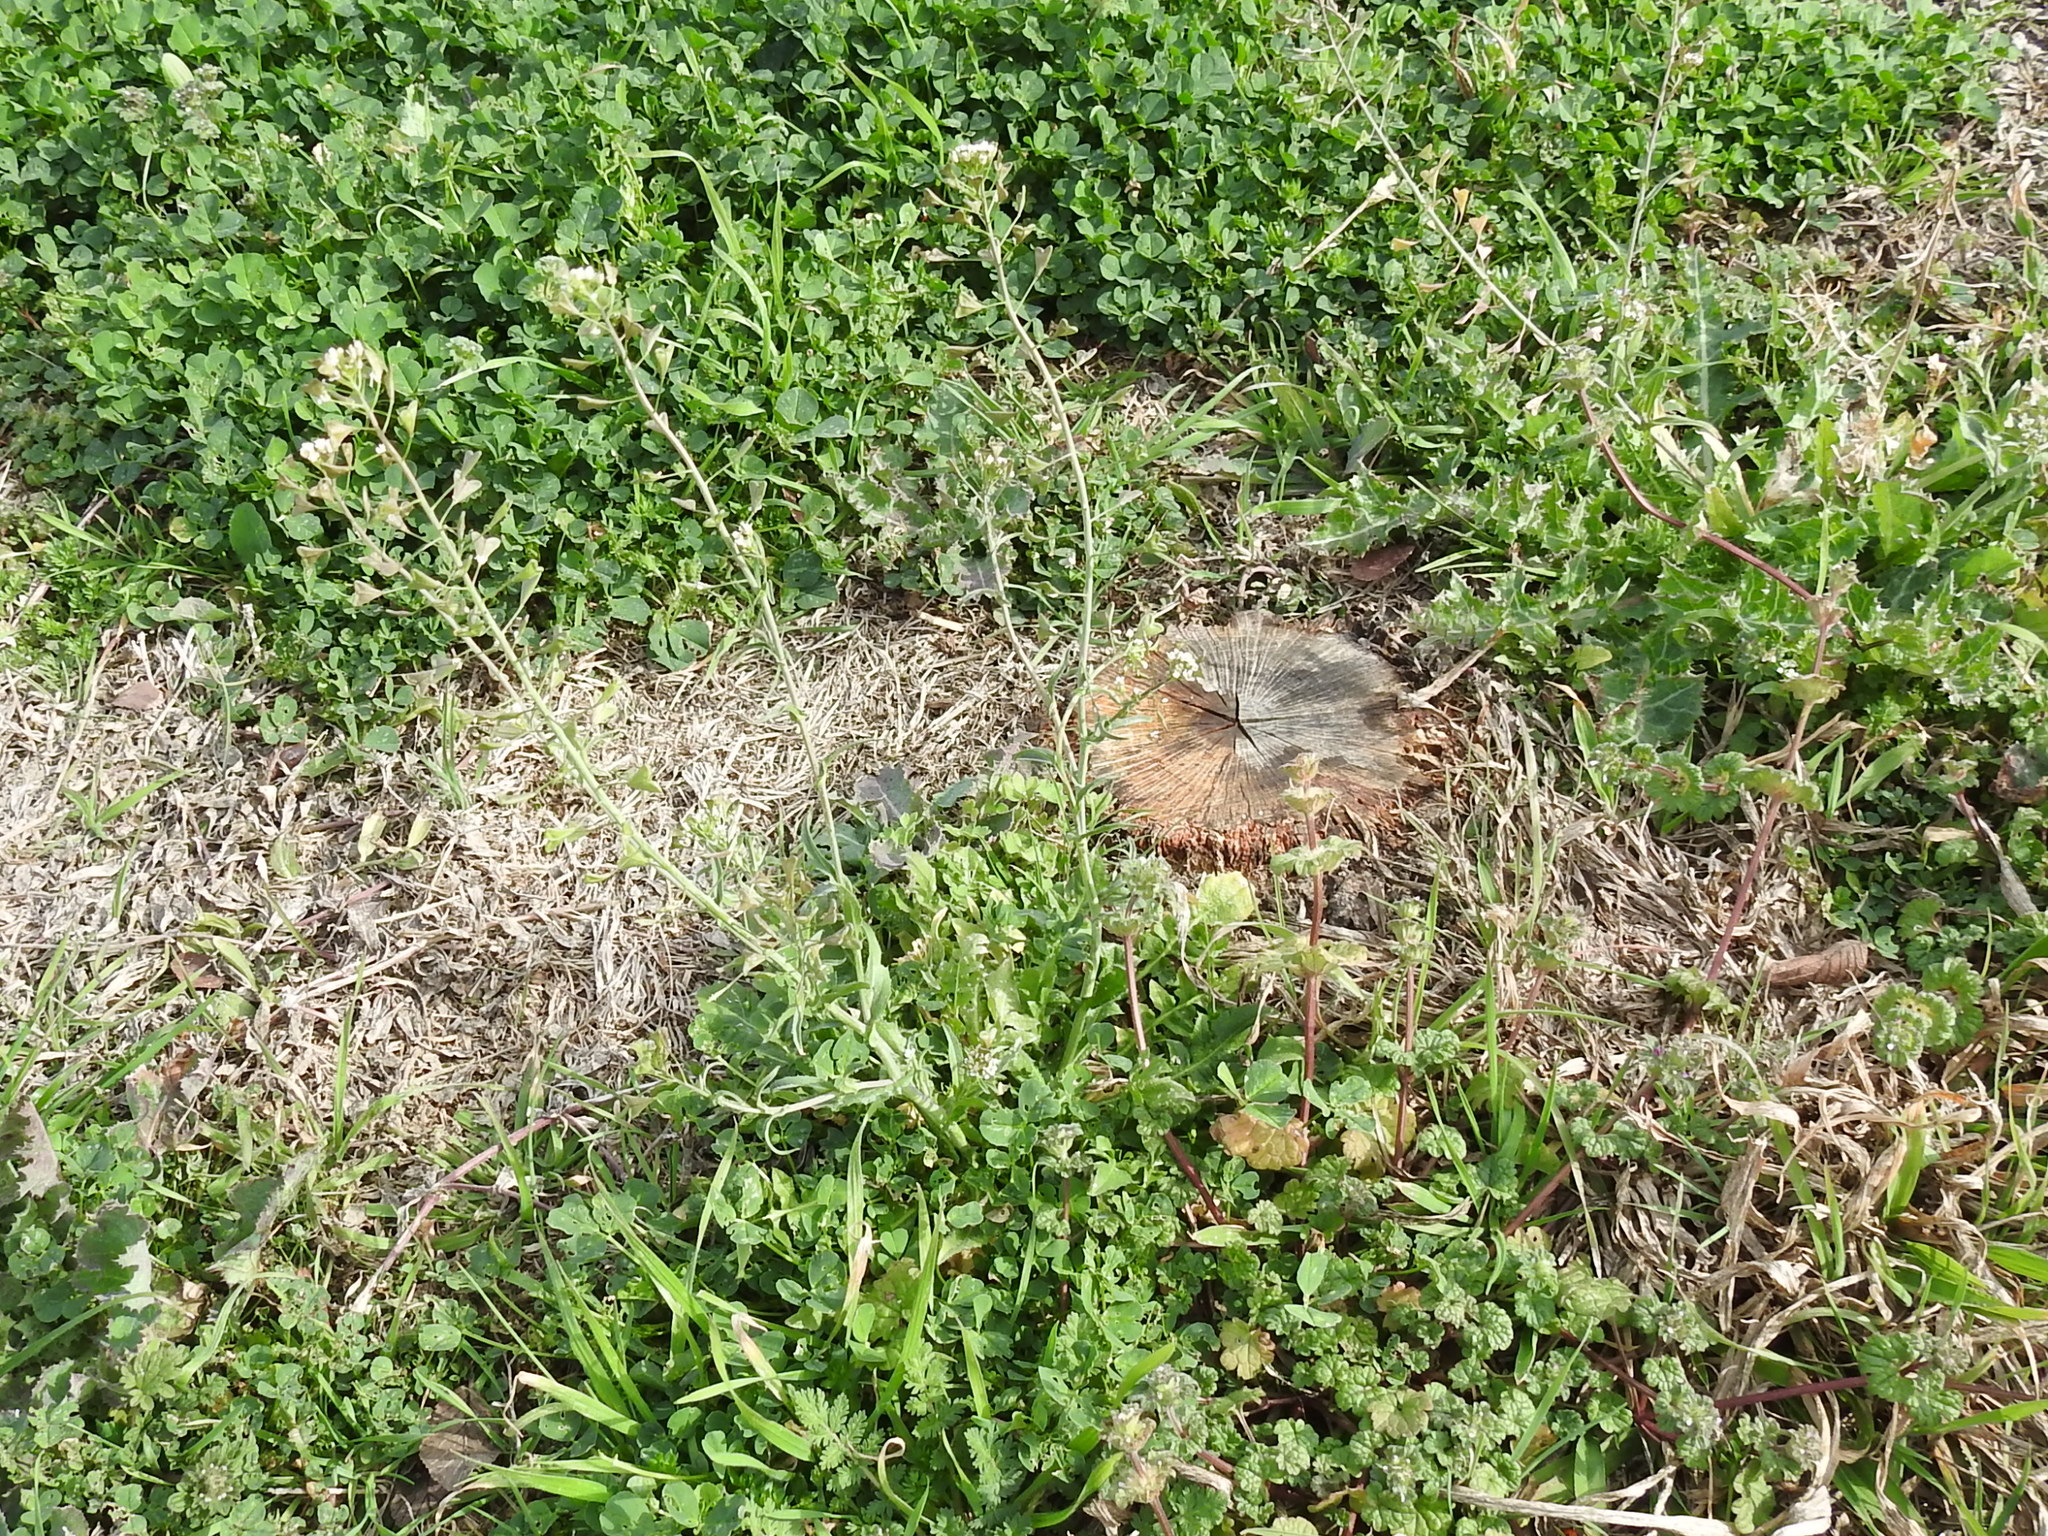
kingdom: Plantae
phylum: Tracheophyta
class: Magnoliopsida
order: Brassicales
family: Brassicaceae
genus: Capsella
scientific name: Capsella bursa-pastoris
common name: Shepherd's purse
